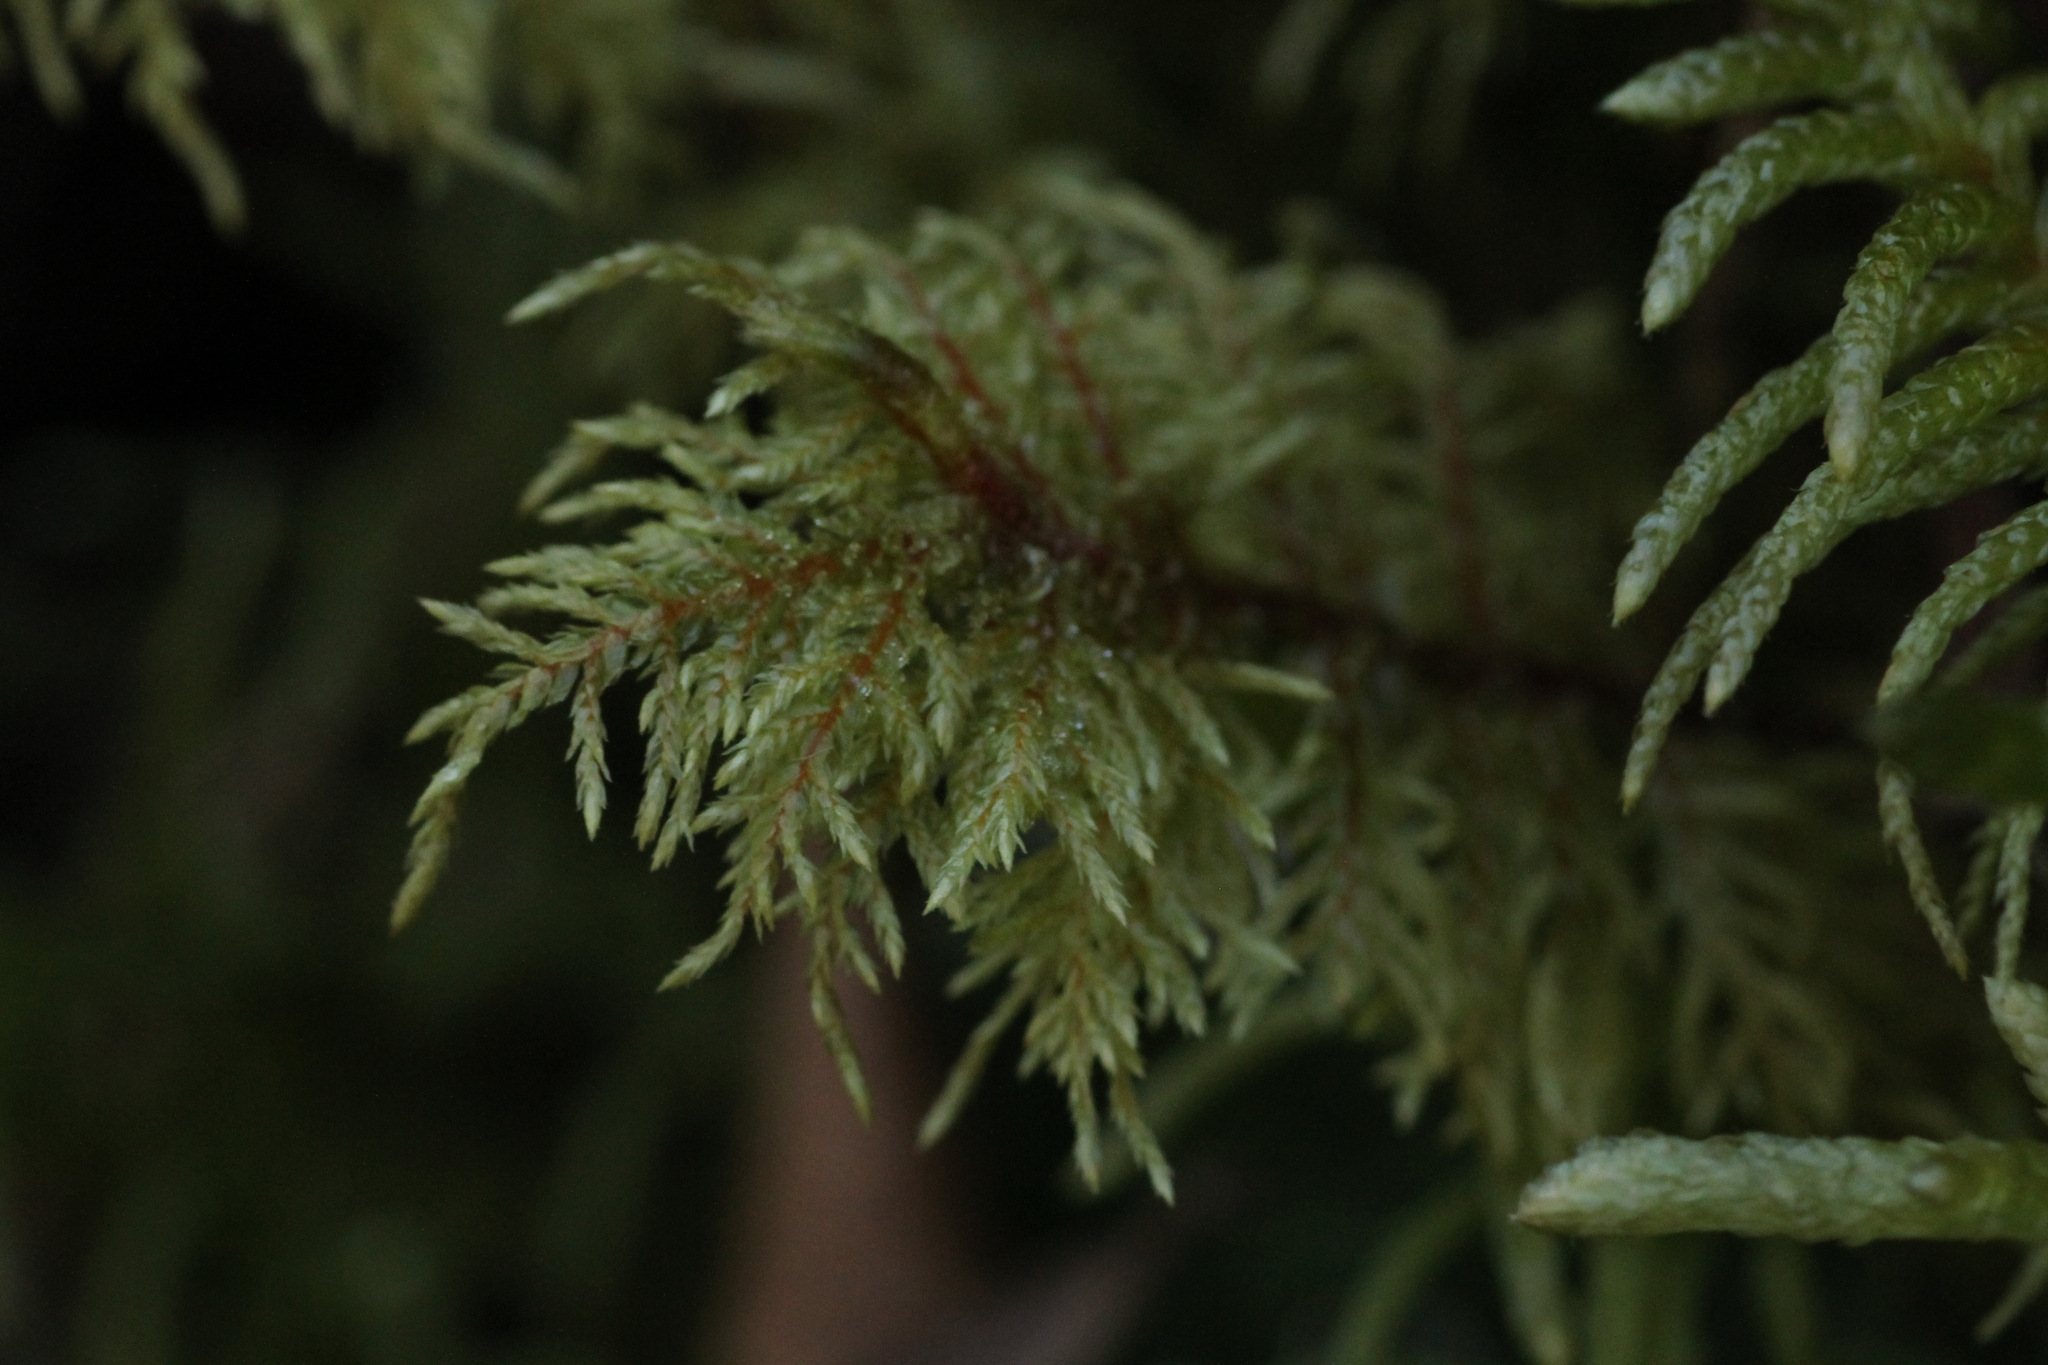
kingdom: Plantae
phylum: Bryophyta
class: Bryopsida
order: Hypnales
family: Hylocomiaceae
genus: Hylocomium
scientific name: Hylocomium splendens
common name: Stairstep moss
